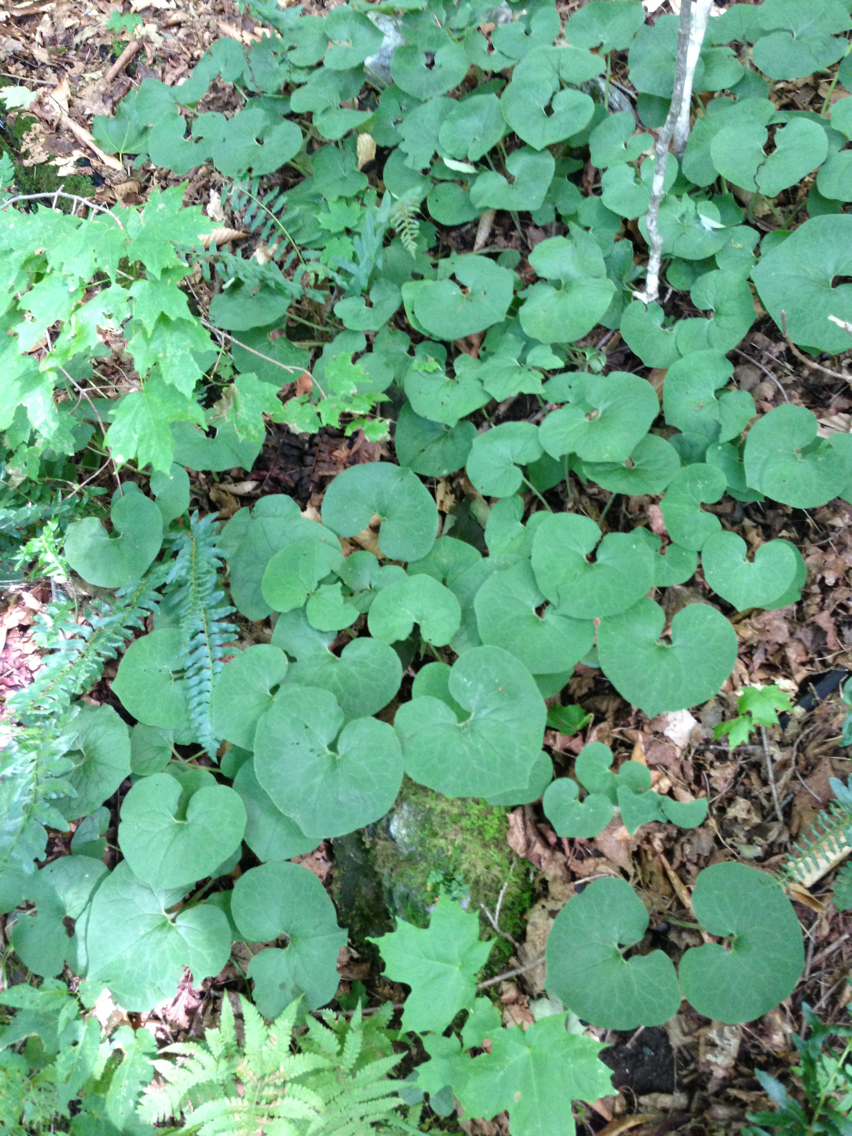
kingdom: Plantae
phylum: Tracheophyta
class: Magnoliopsida
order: Piperales
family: Aristolochiaceae
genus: Asarum
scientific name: Asarum canadense
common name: Wild ginger
